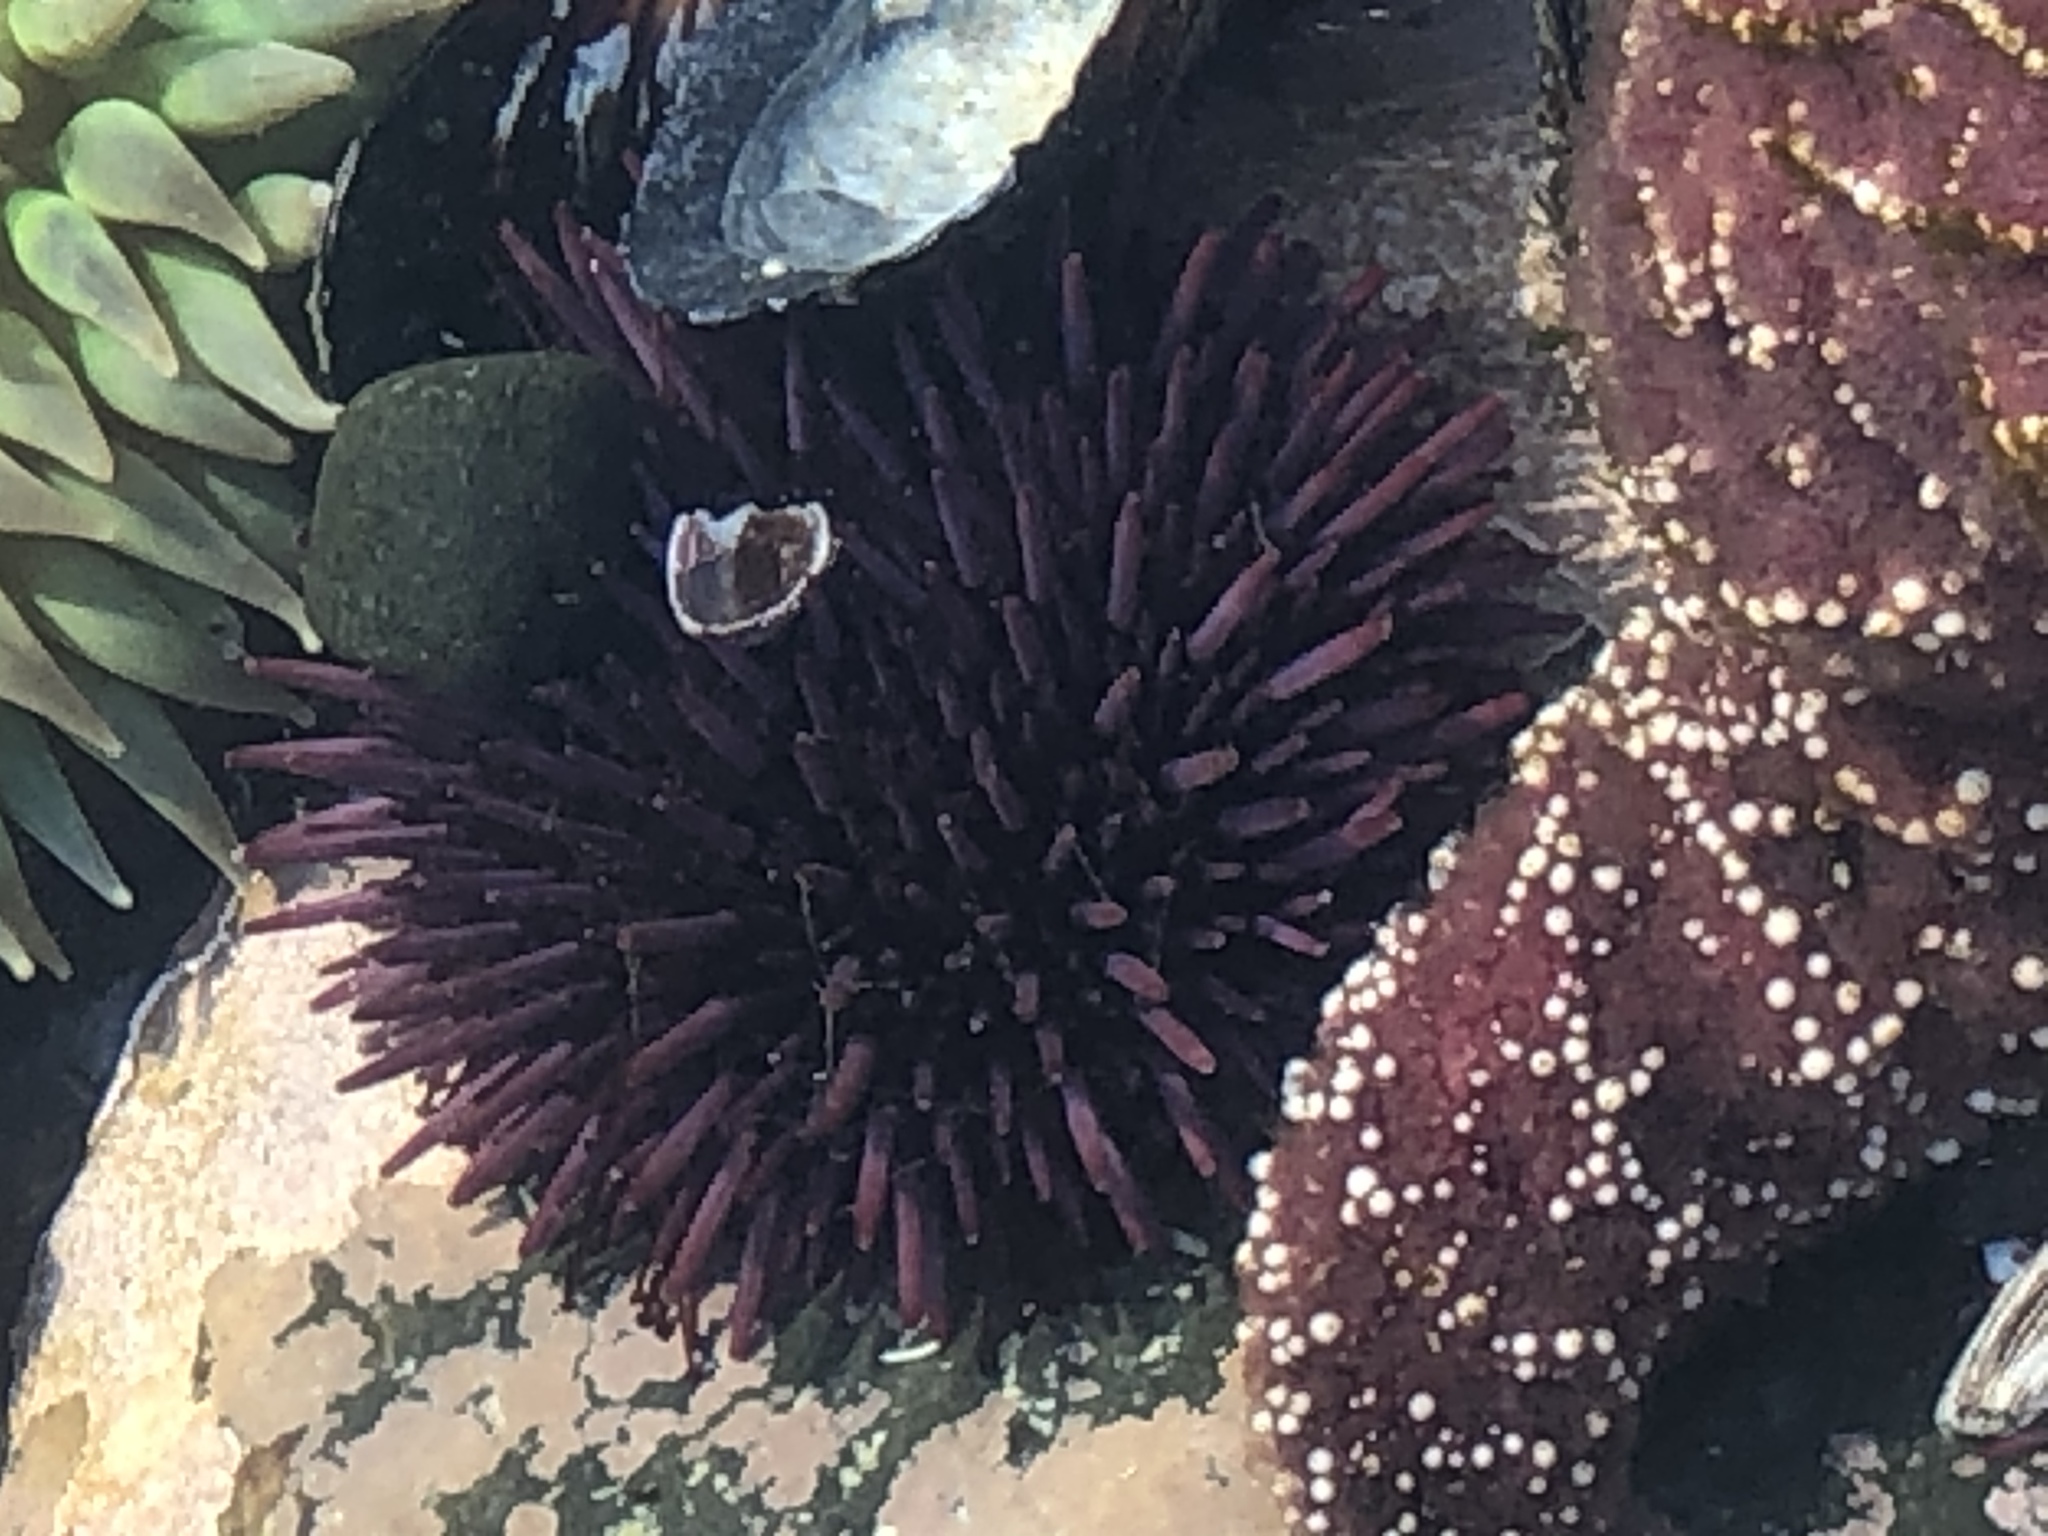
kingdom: Animalia
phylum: Echinodermata
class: Echinoidea
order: Camarodonta
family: Strongylocentrotidae
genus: Strongylocentrotus
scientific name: Strongylocentrotus purpuratus
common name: Purple sea urchin
